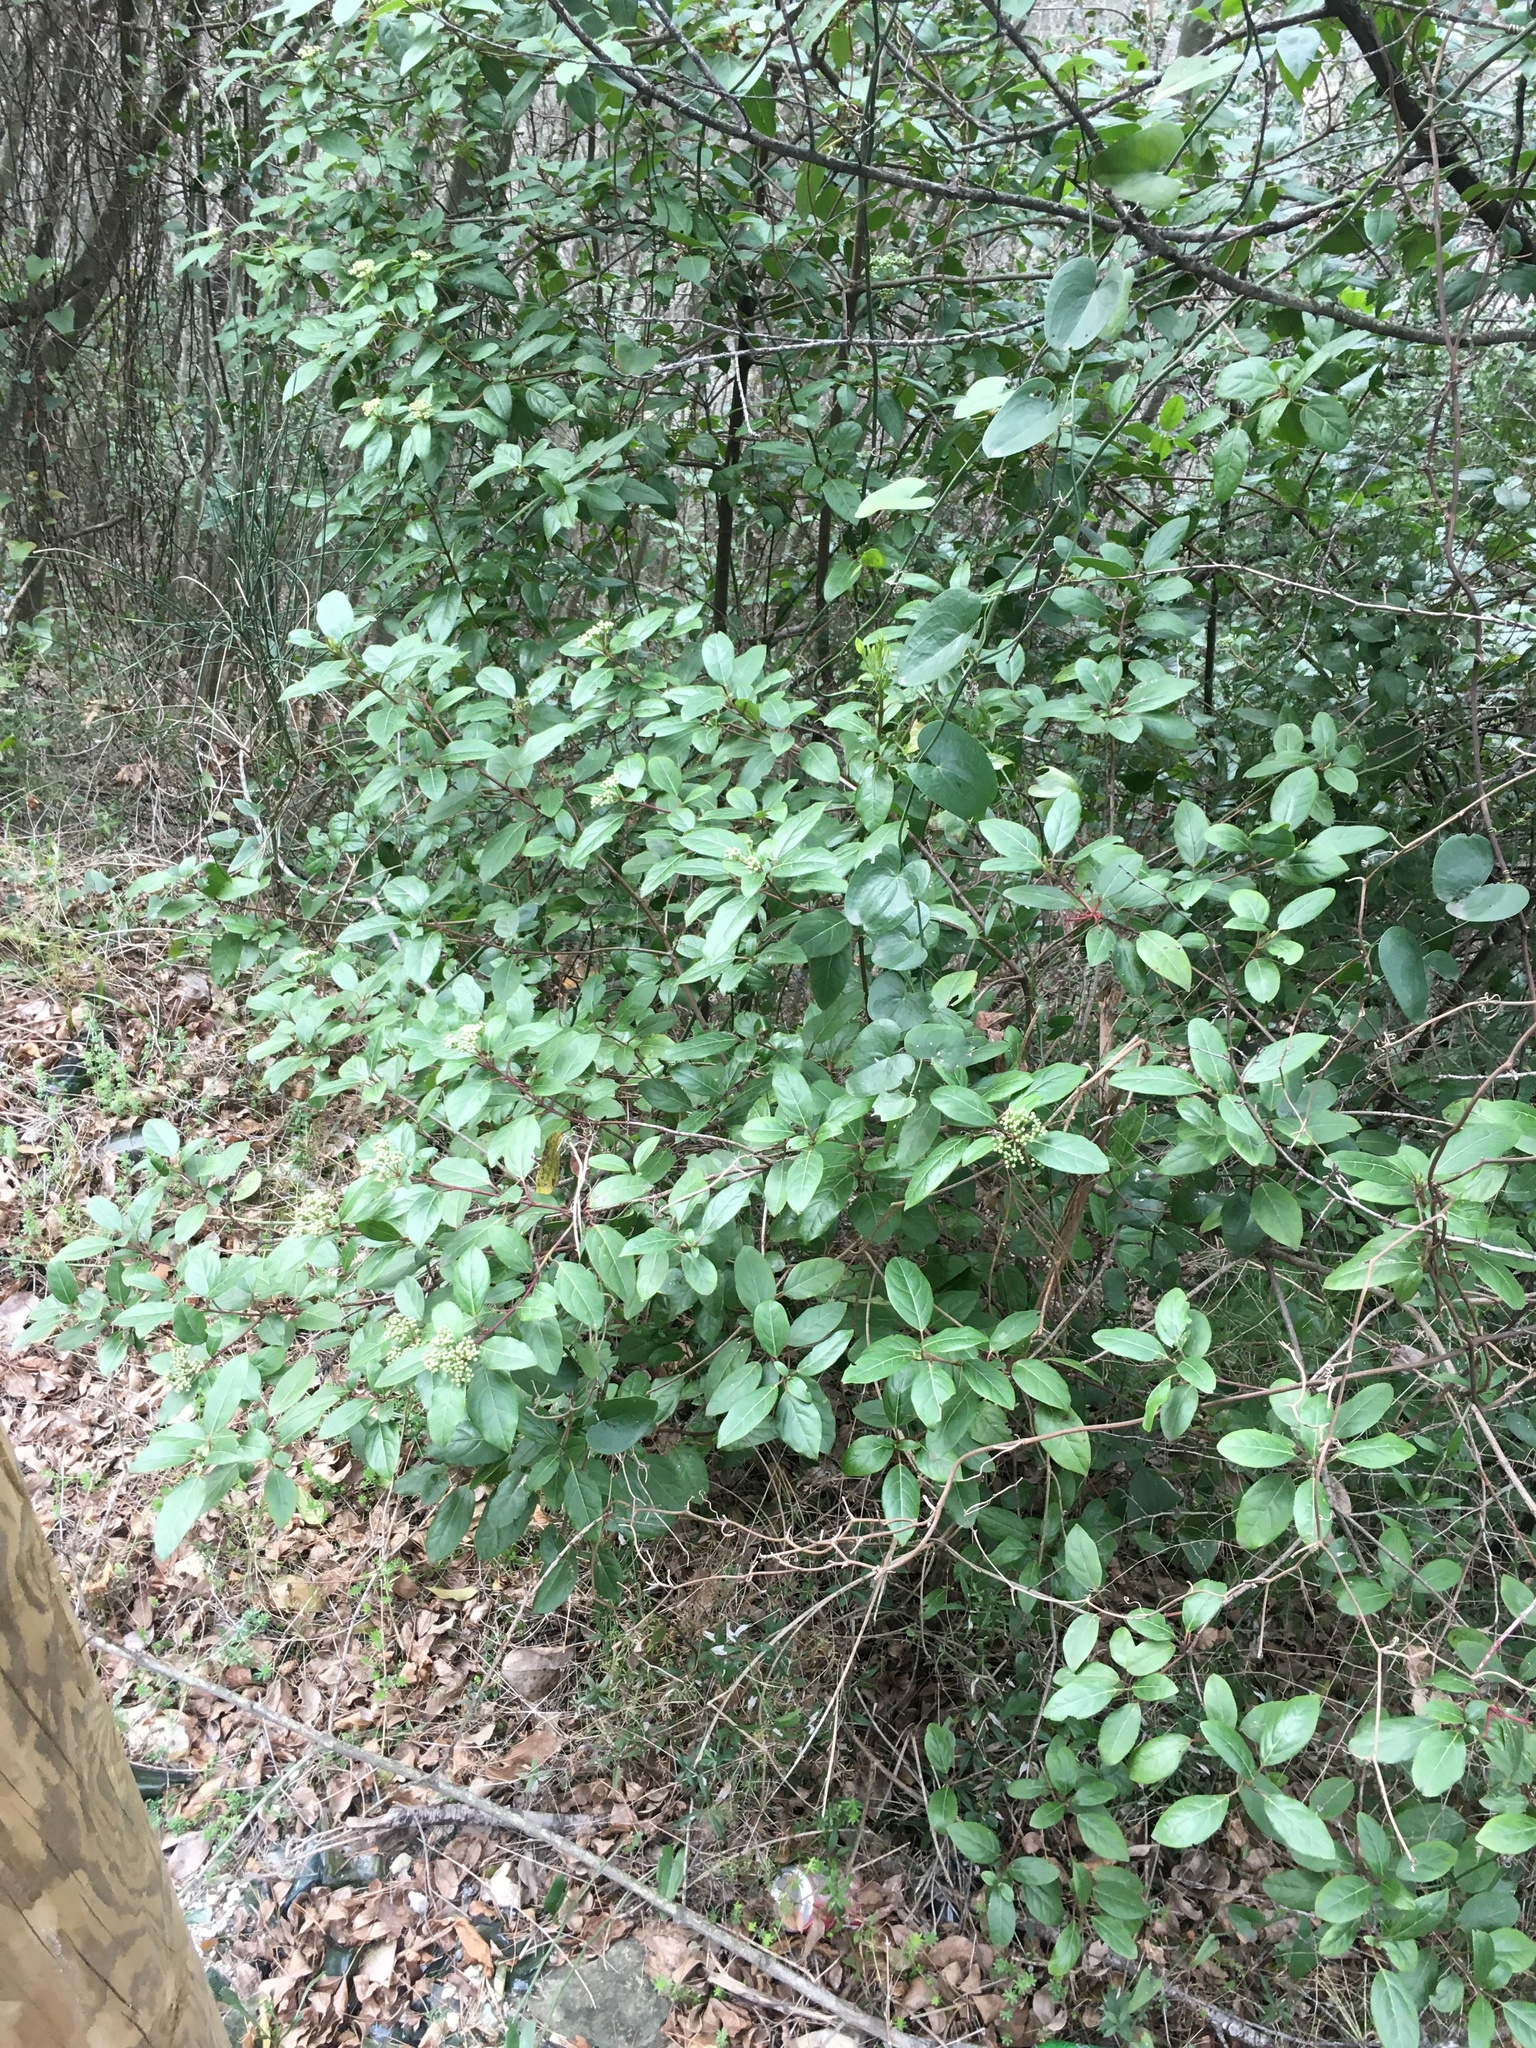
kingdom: Plantae
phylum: Tracheophyta
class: Magnoliopsida
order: Dipsacales
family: Viburnaceae
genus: Viburnum
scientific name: Viburnum tinus
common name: Laurustinus
